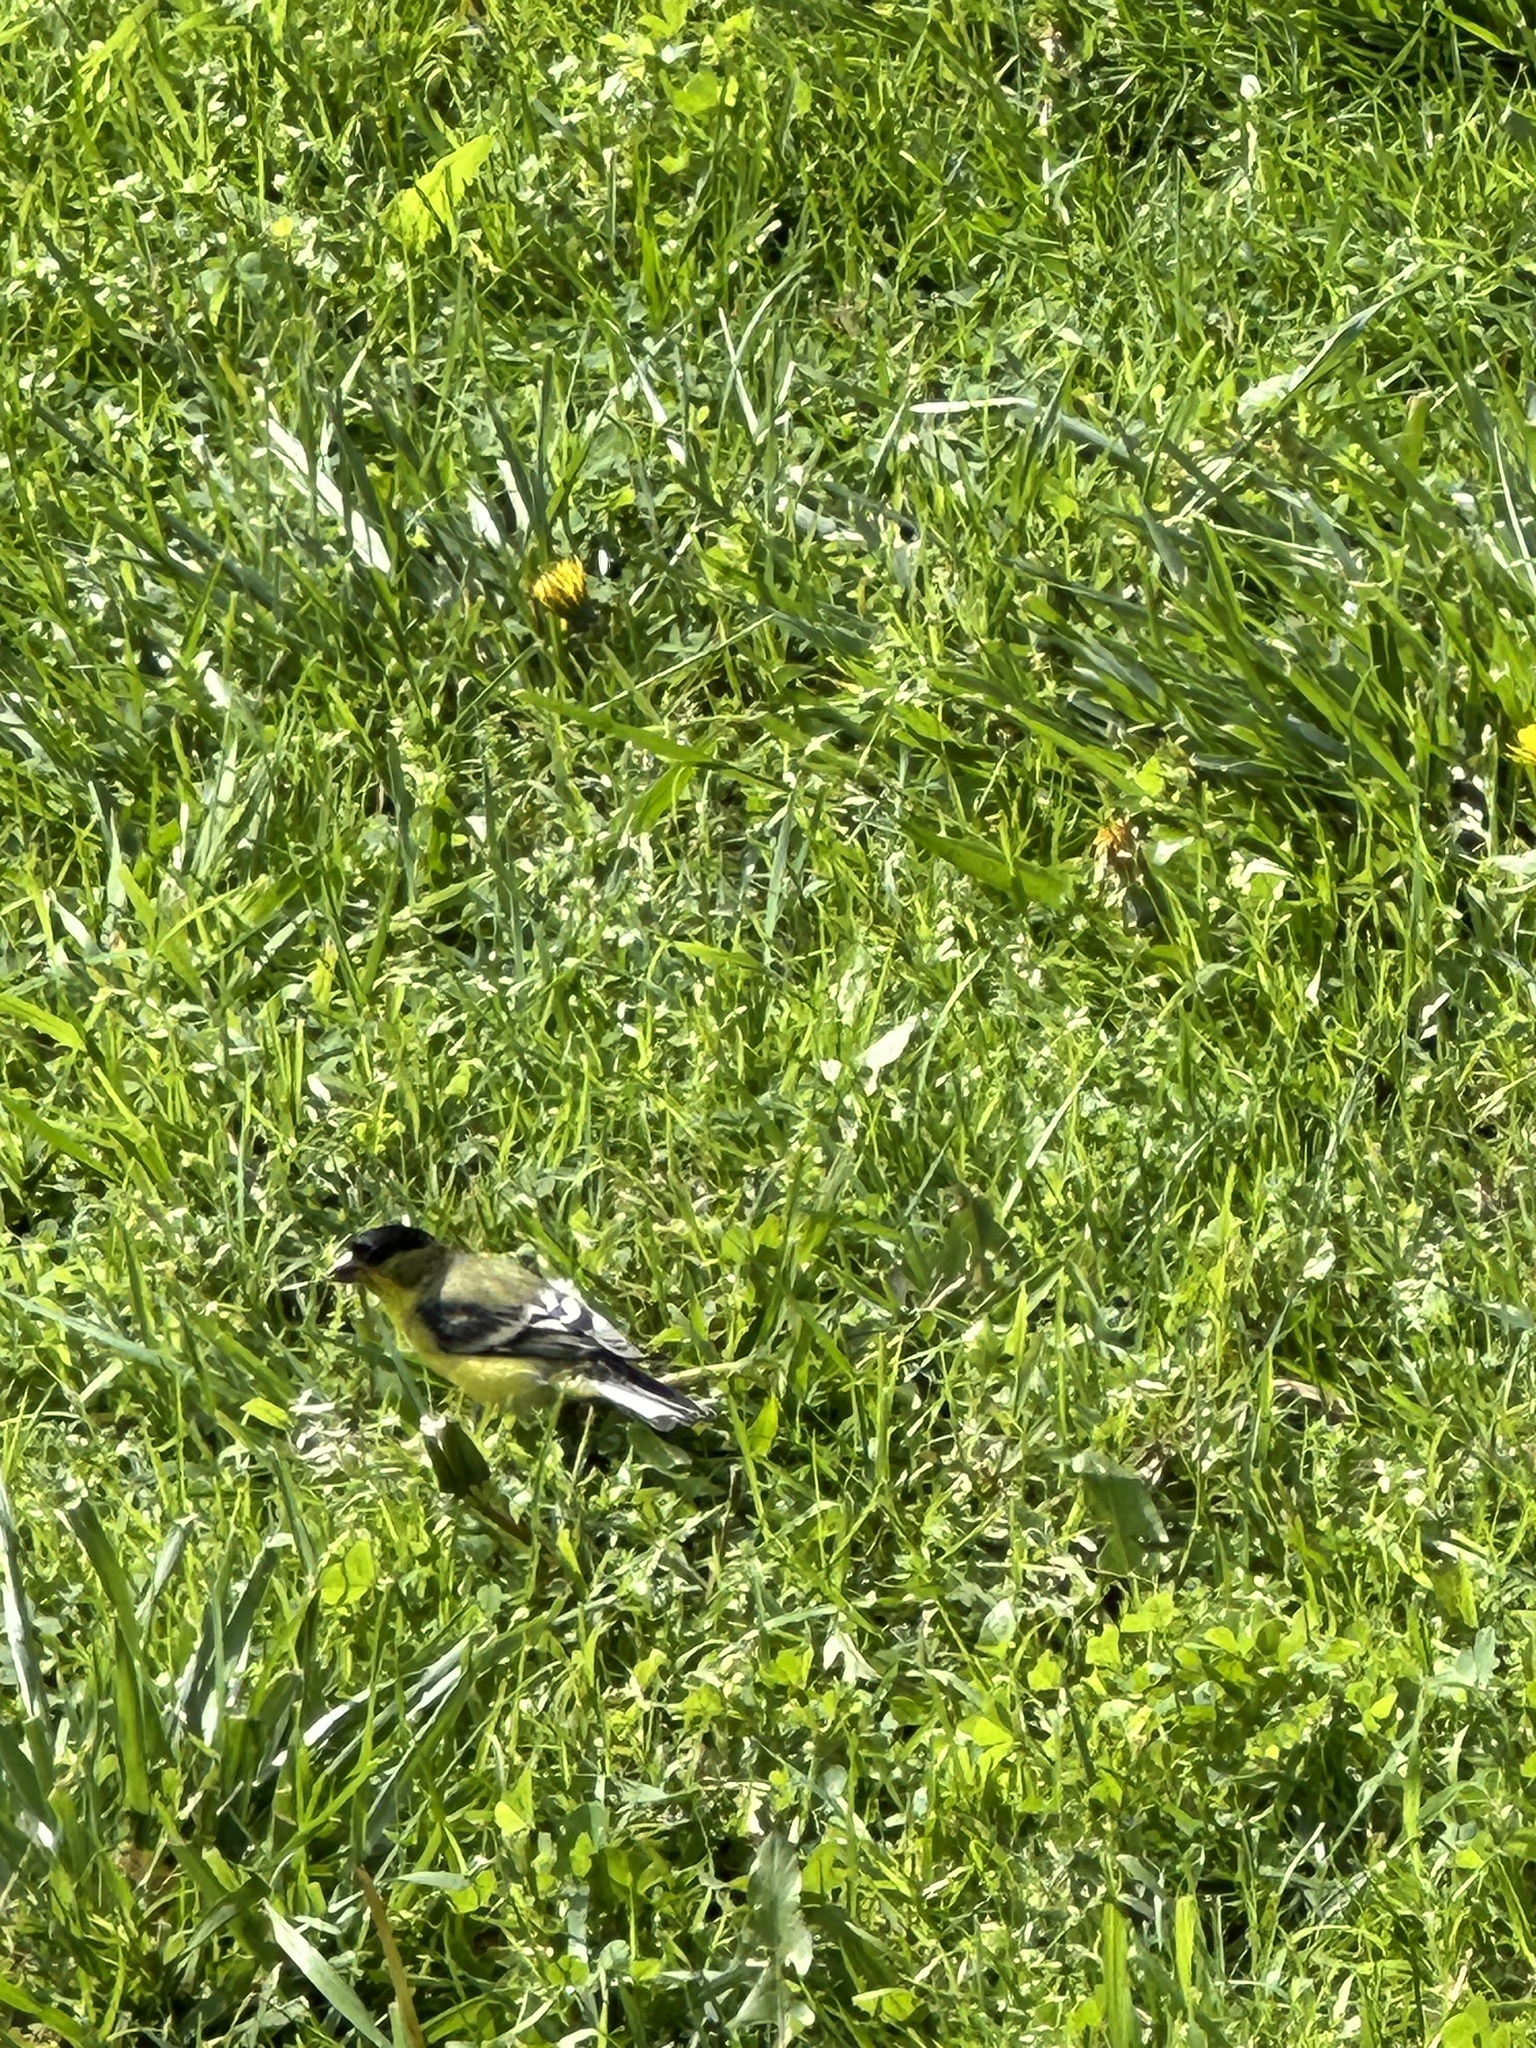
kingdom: Animalia
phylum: Chordata
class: Aves
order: Passeriformes
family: Fringillidae
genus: Spinus
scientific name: Spinus psaltria
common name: Lesser goldfinch
